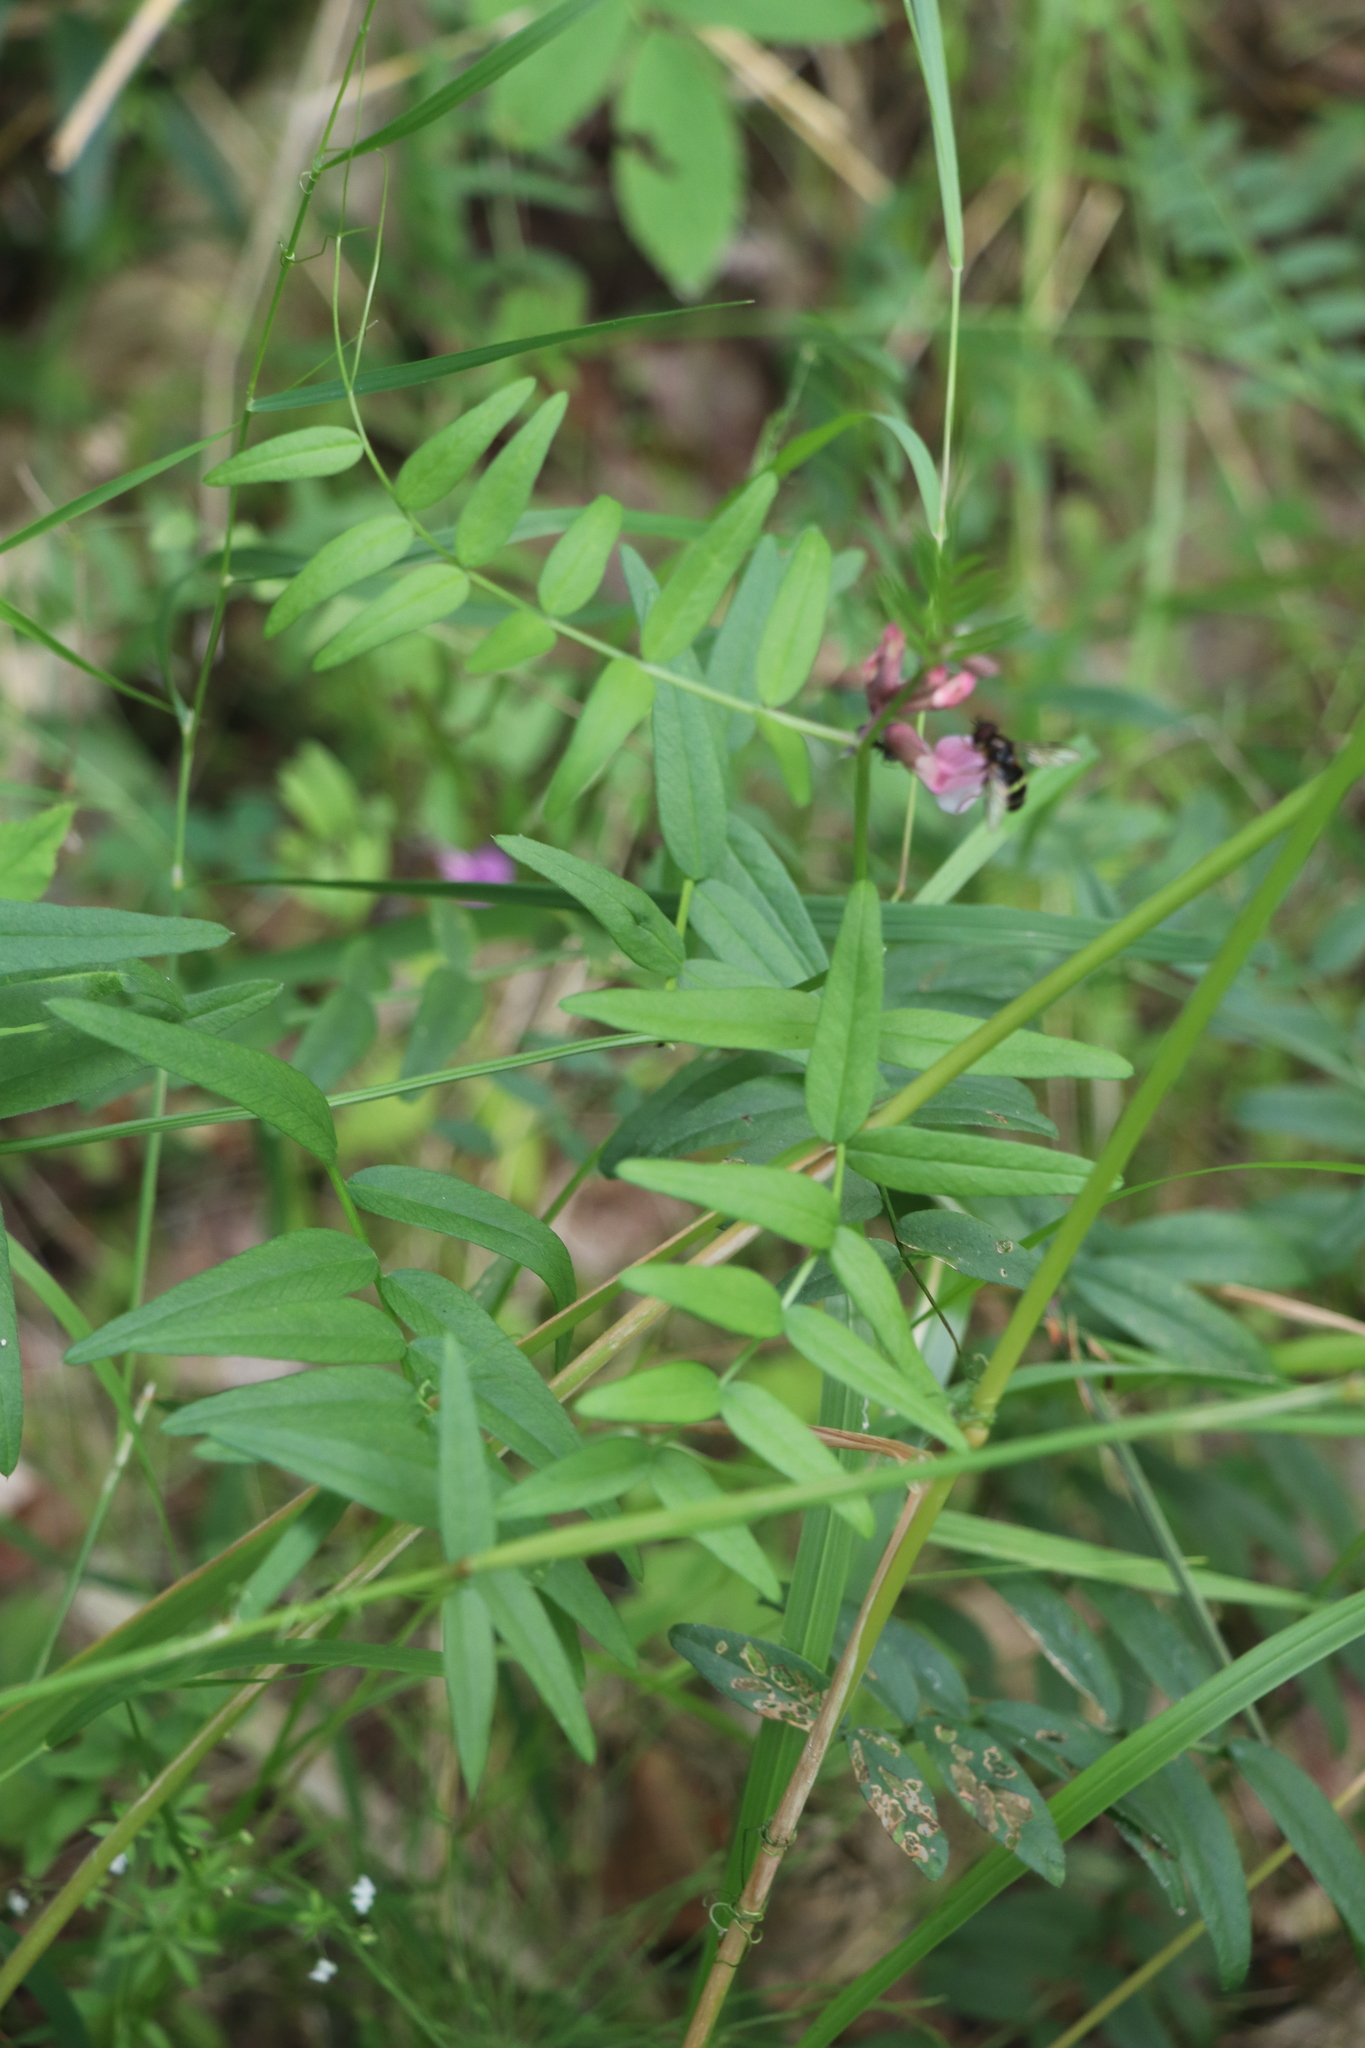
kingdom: Plantae
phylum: Tracheophyta
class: Magnoliopsida
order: Fabales
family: Fabaceae
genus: Vicia
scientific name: Vicia sepium
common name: Bush vetch
